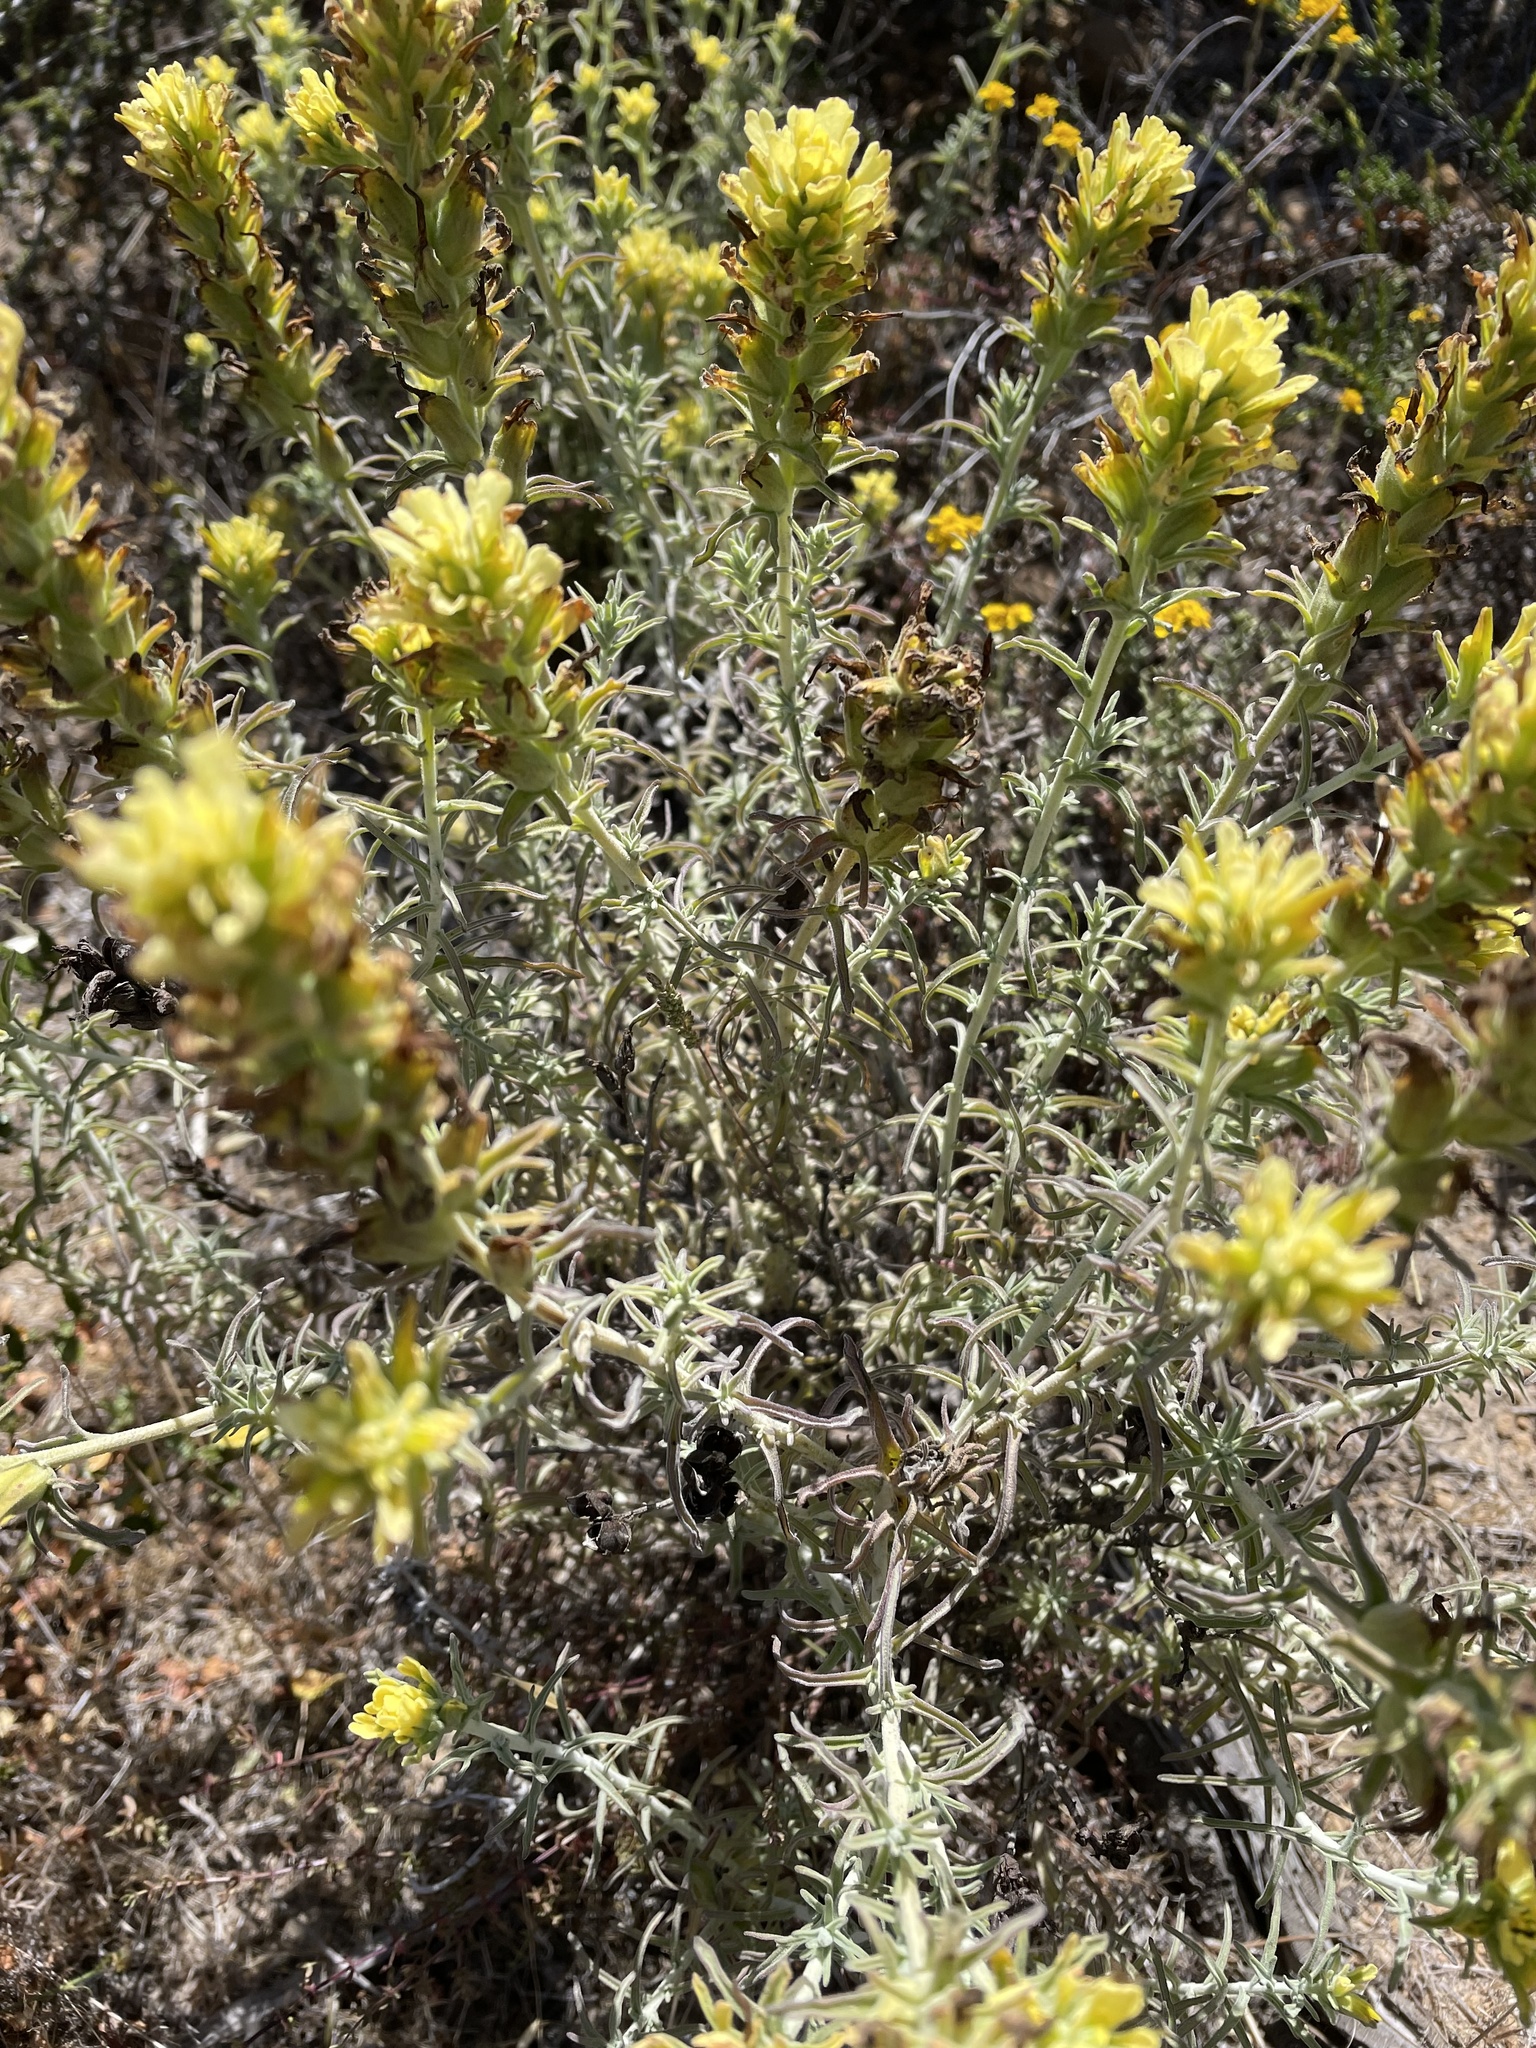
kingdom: Plantae
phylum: Tracheophyta
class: Magnoliopsida
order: Lamiales
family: Orobanchaceae
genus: Castilleja
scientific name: Castilleja foliolosa
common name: Woolly indian paintbrush
